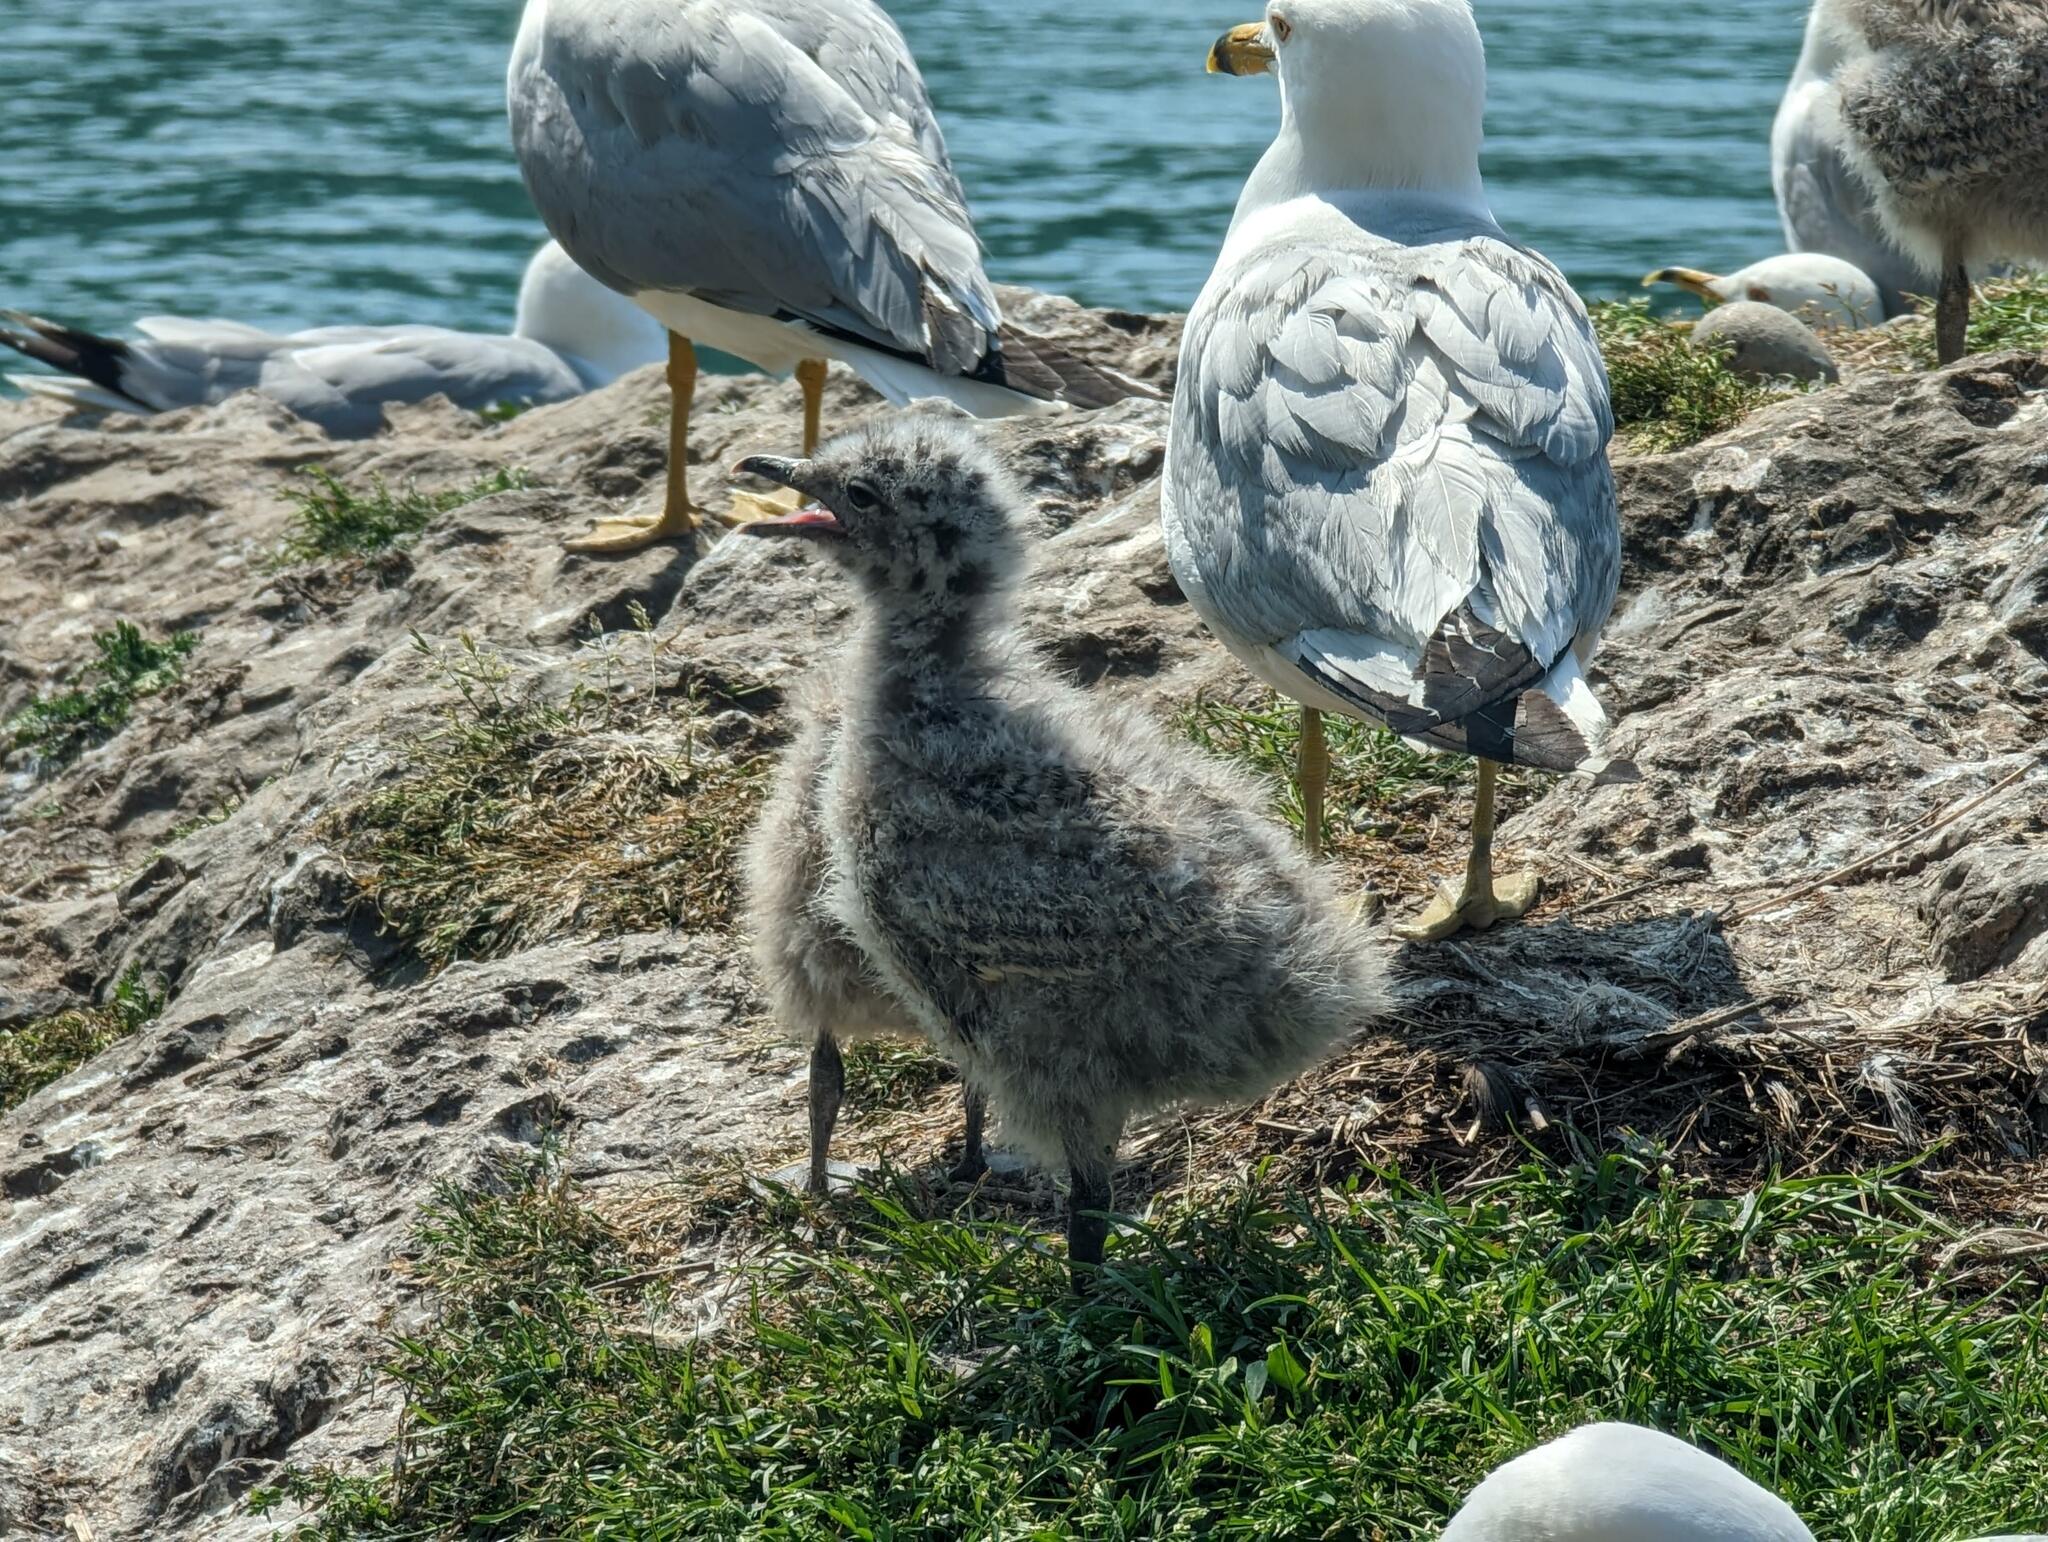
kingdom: Animalia
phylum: Chordata
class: Aves
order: Charadriiformes
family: Laridae
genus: Larus
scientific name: Larus delawarensis
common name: Ring-billed gull
